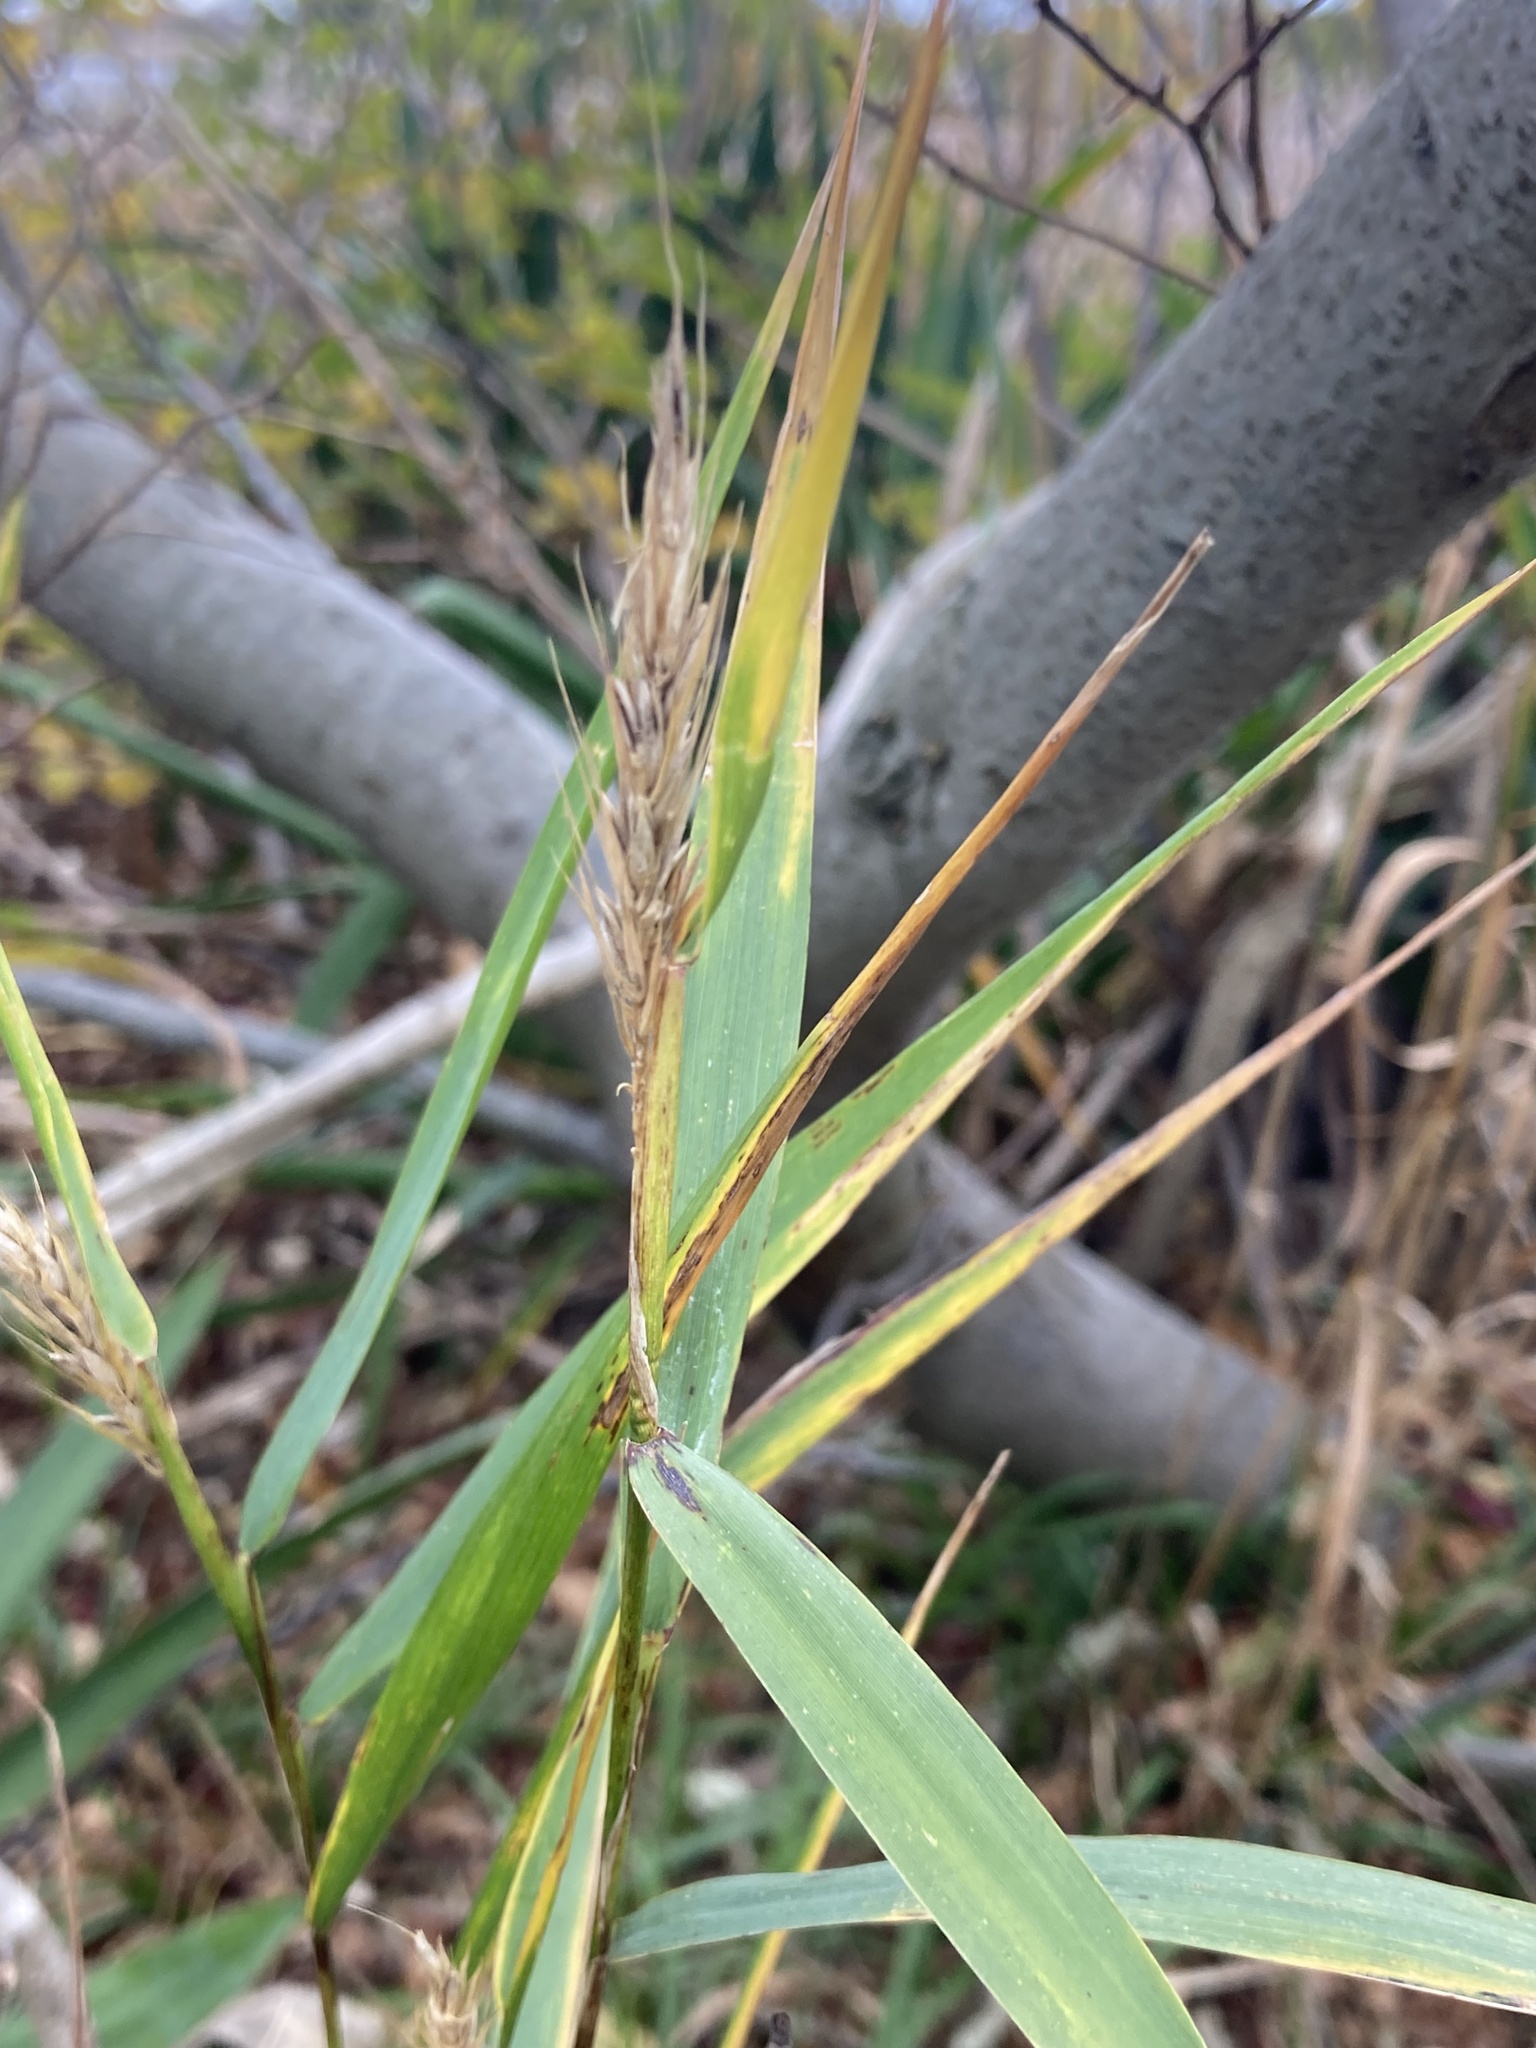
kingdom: Plantae
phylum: Tracheophyta
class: Liliopsida
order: Poales
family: Poaceae
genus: Elymus
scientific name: Elymus virginicus
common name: Common eastern wildrye
